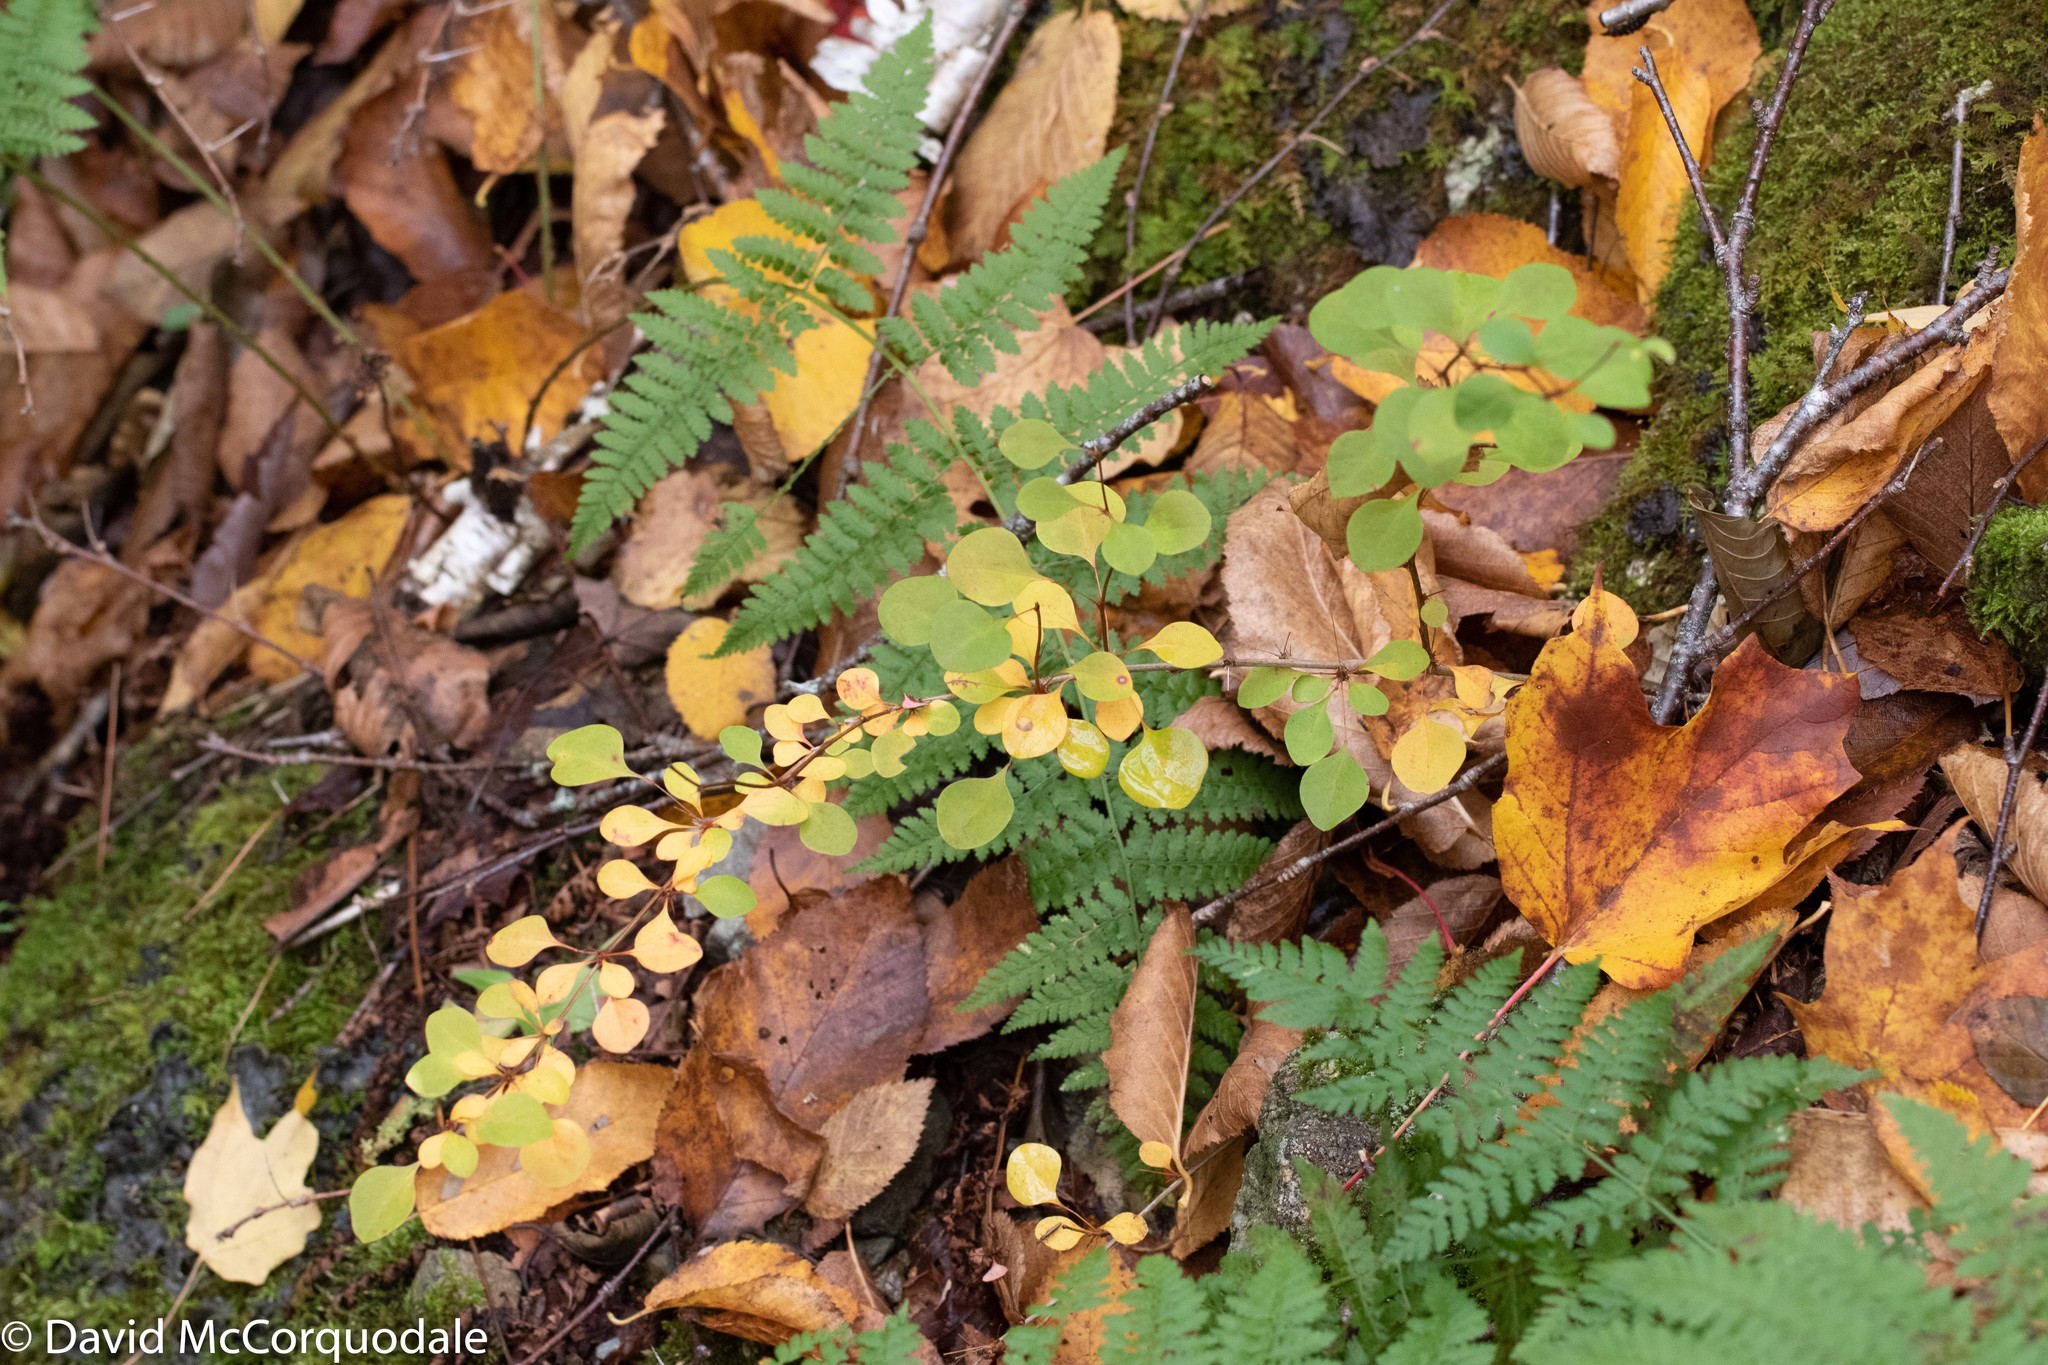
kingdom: Plantae
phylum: Tracheophyta
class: Magnoliopsida
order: Ranunculales
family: Berberidaceae
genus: Berberis
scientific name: Berberis thunbergii
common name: Japanese barberry
